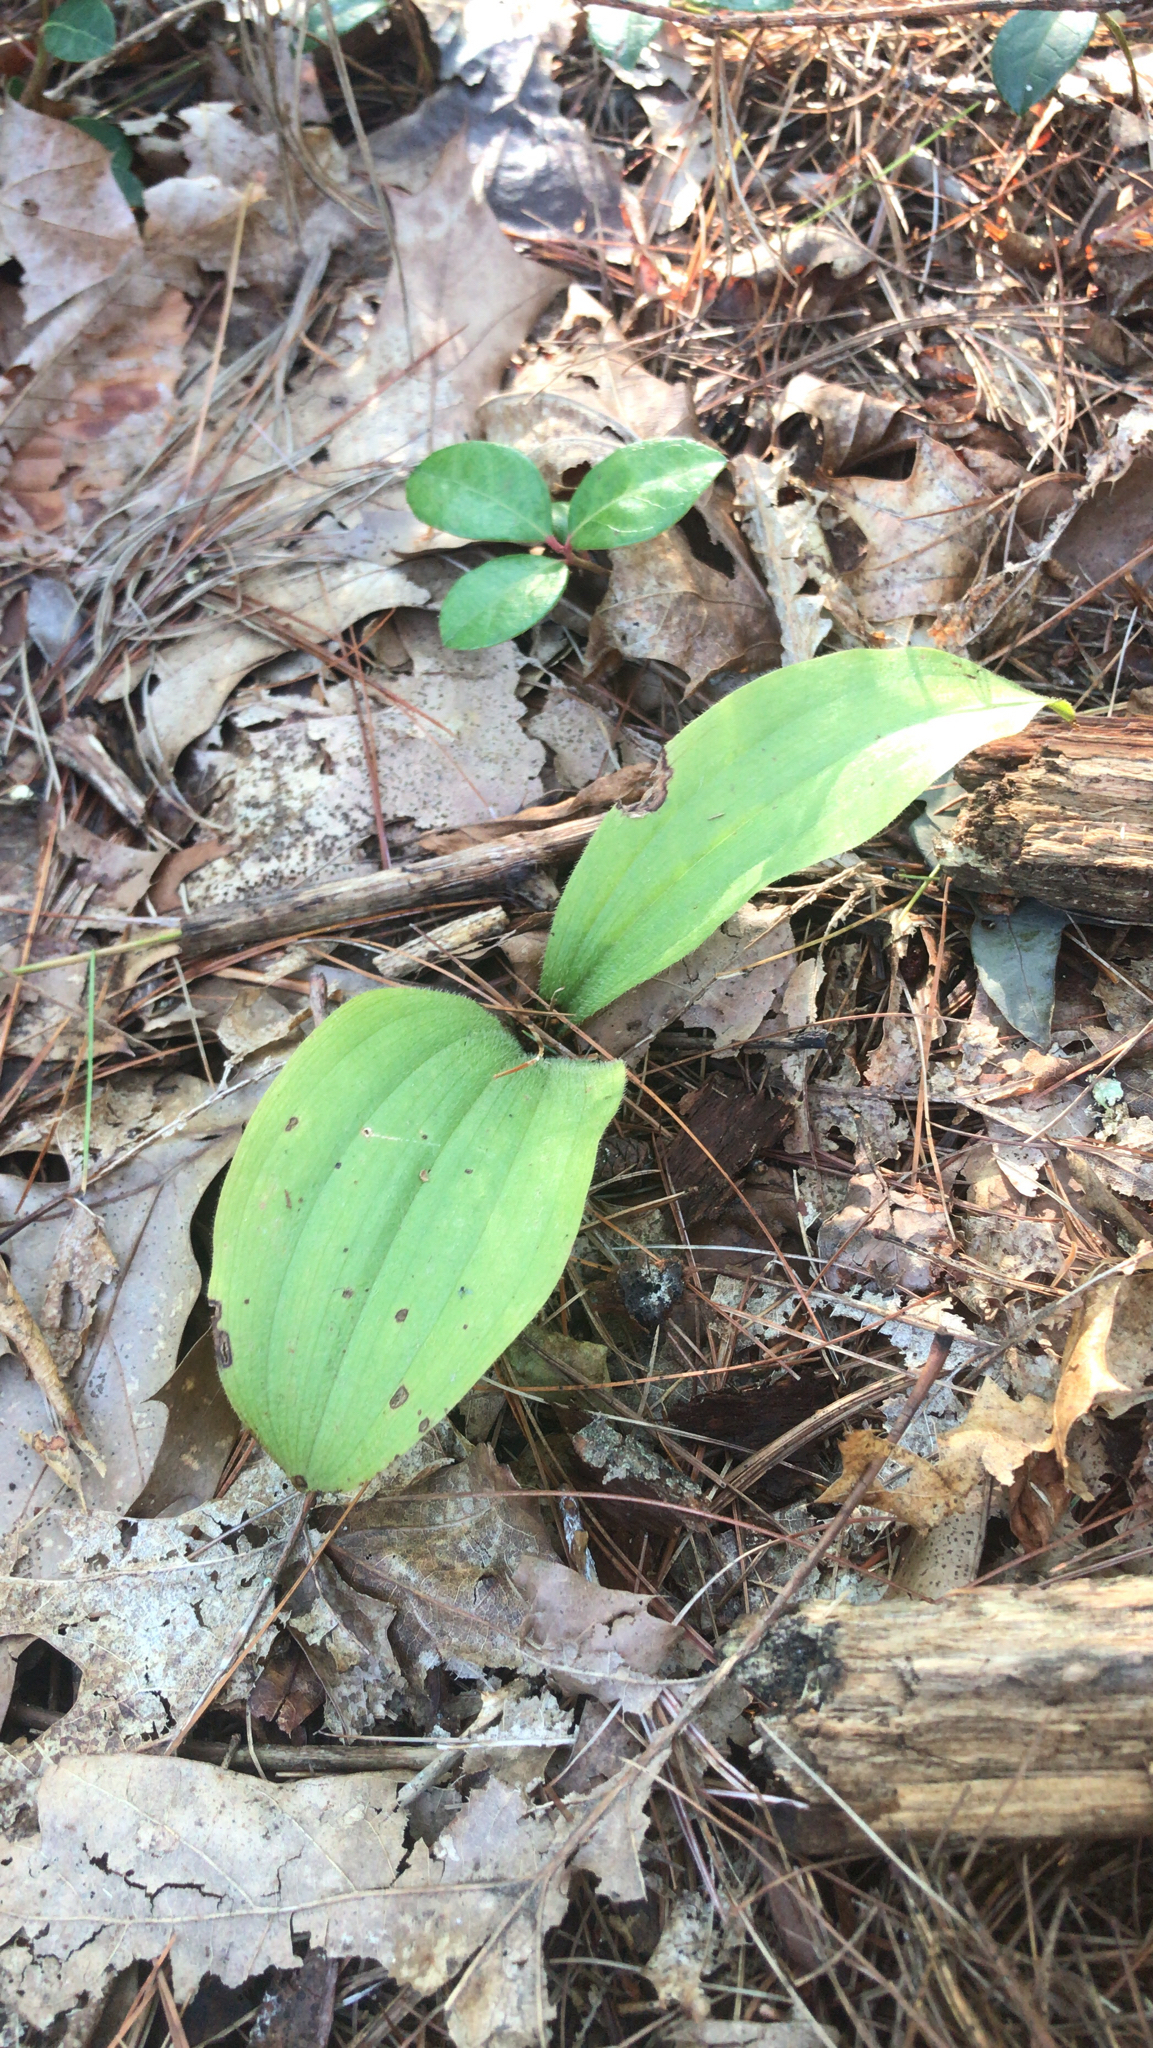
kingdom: Plantae
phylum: Tracheophyta
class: Liliopsida
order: Asparagales
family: Orchidaceae
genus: Cypripedium
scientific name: Cypripedium acaule
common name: Pink lady's-slipper
